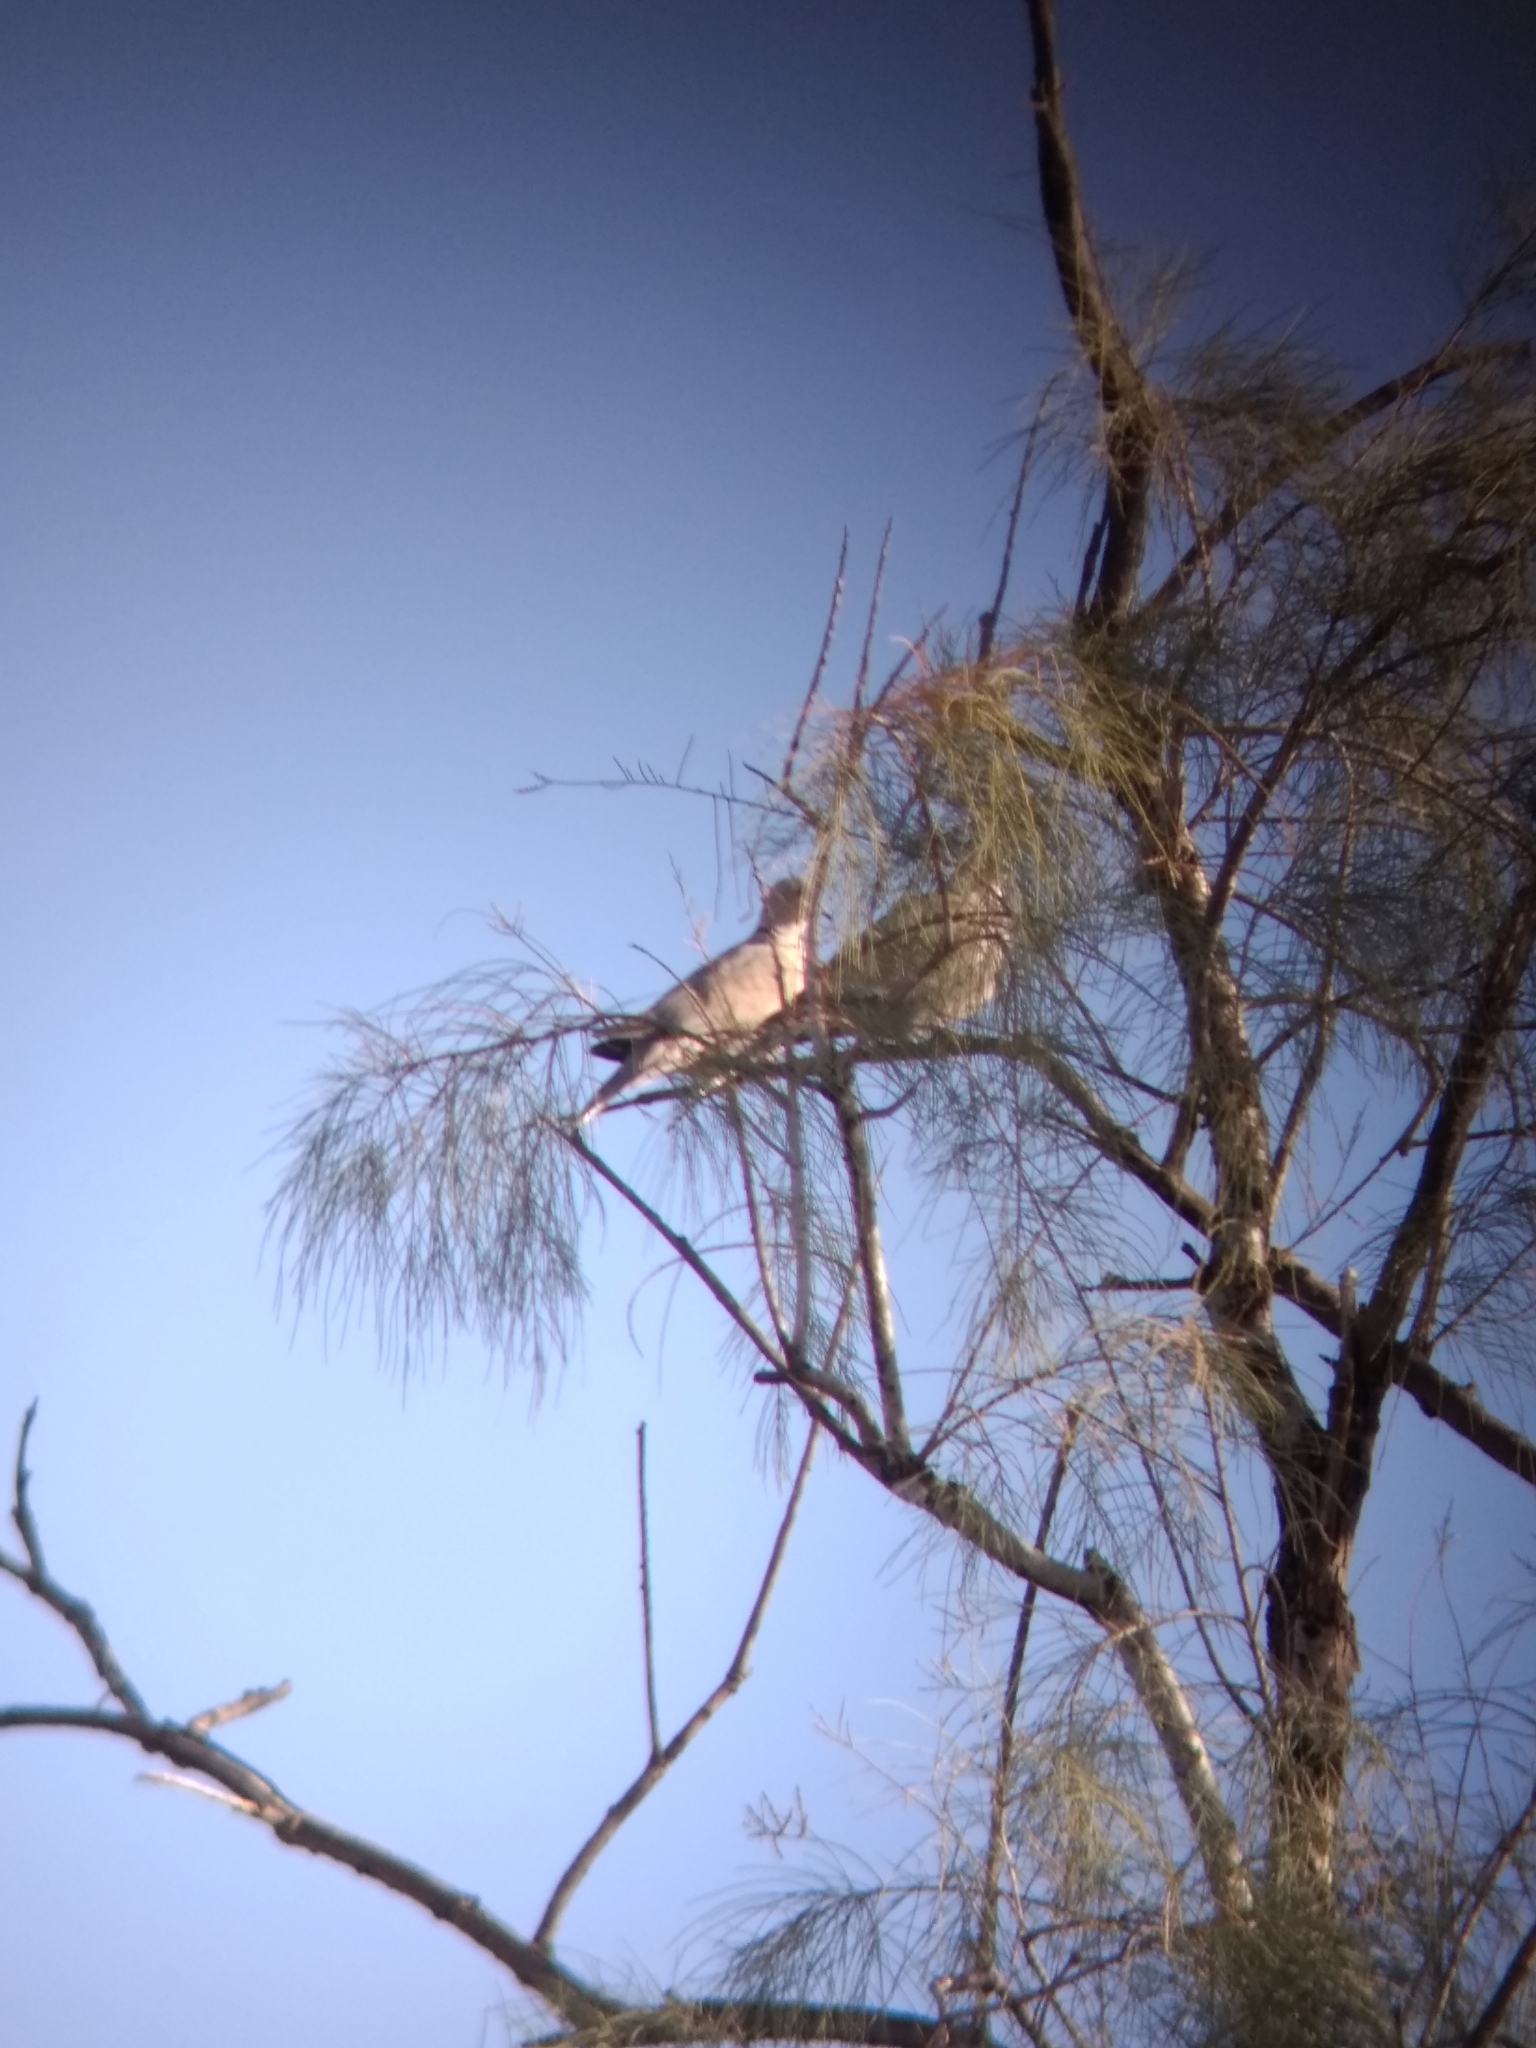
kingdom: Animalia
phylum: Chordata
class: Aves
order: Columbiformes
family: Columbidae
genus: Streptopelia
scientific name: Streptopelia decaocto
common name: Eurasian collared dove
